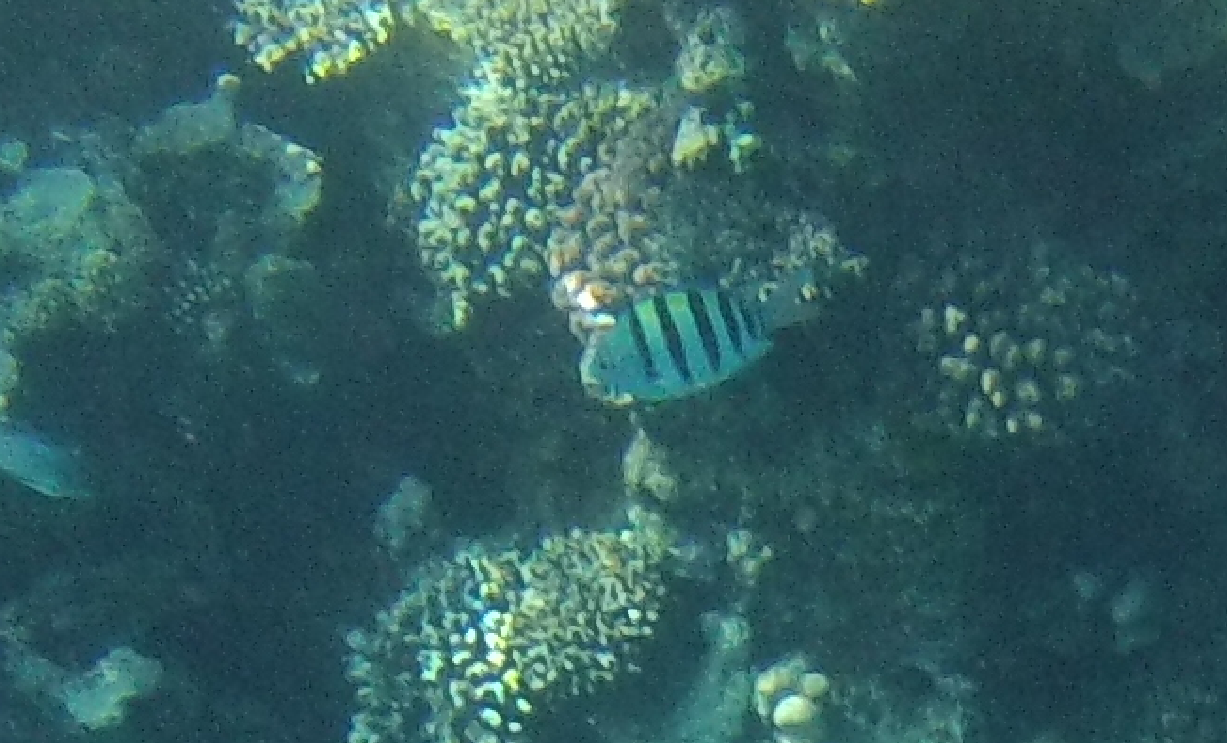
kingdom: Animalia
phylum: Chordata
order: Perciformes
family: Pomacentridae
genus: Abudefduf
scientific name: Abudefduf vaigiensis
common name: Indo-pacific sergeant
